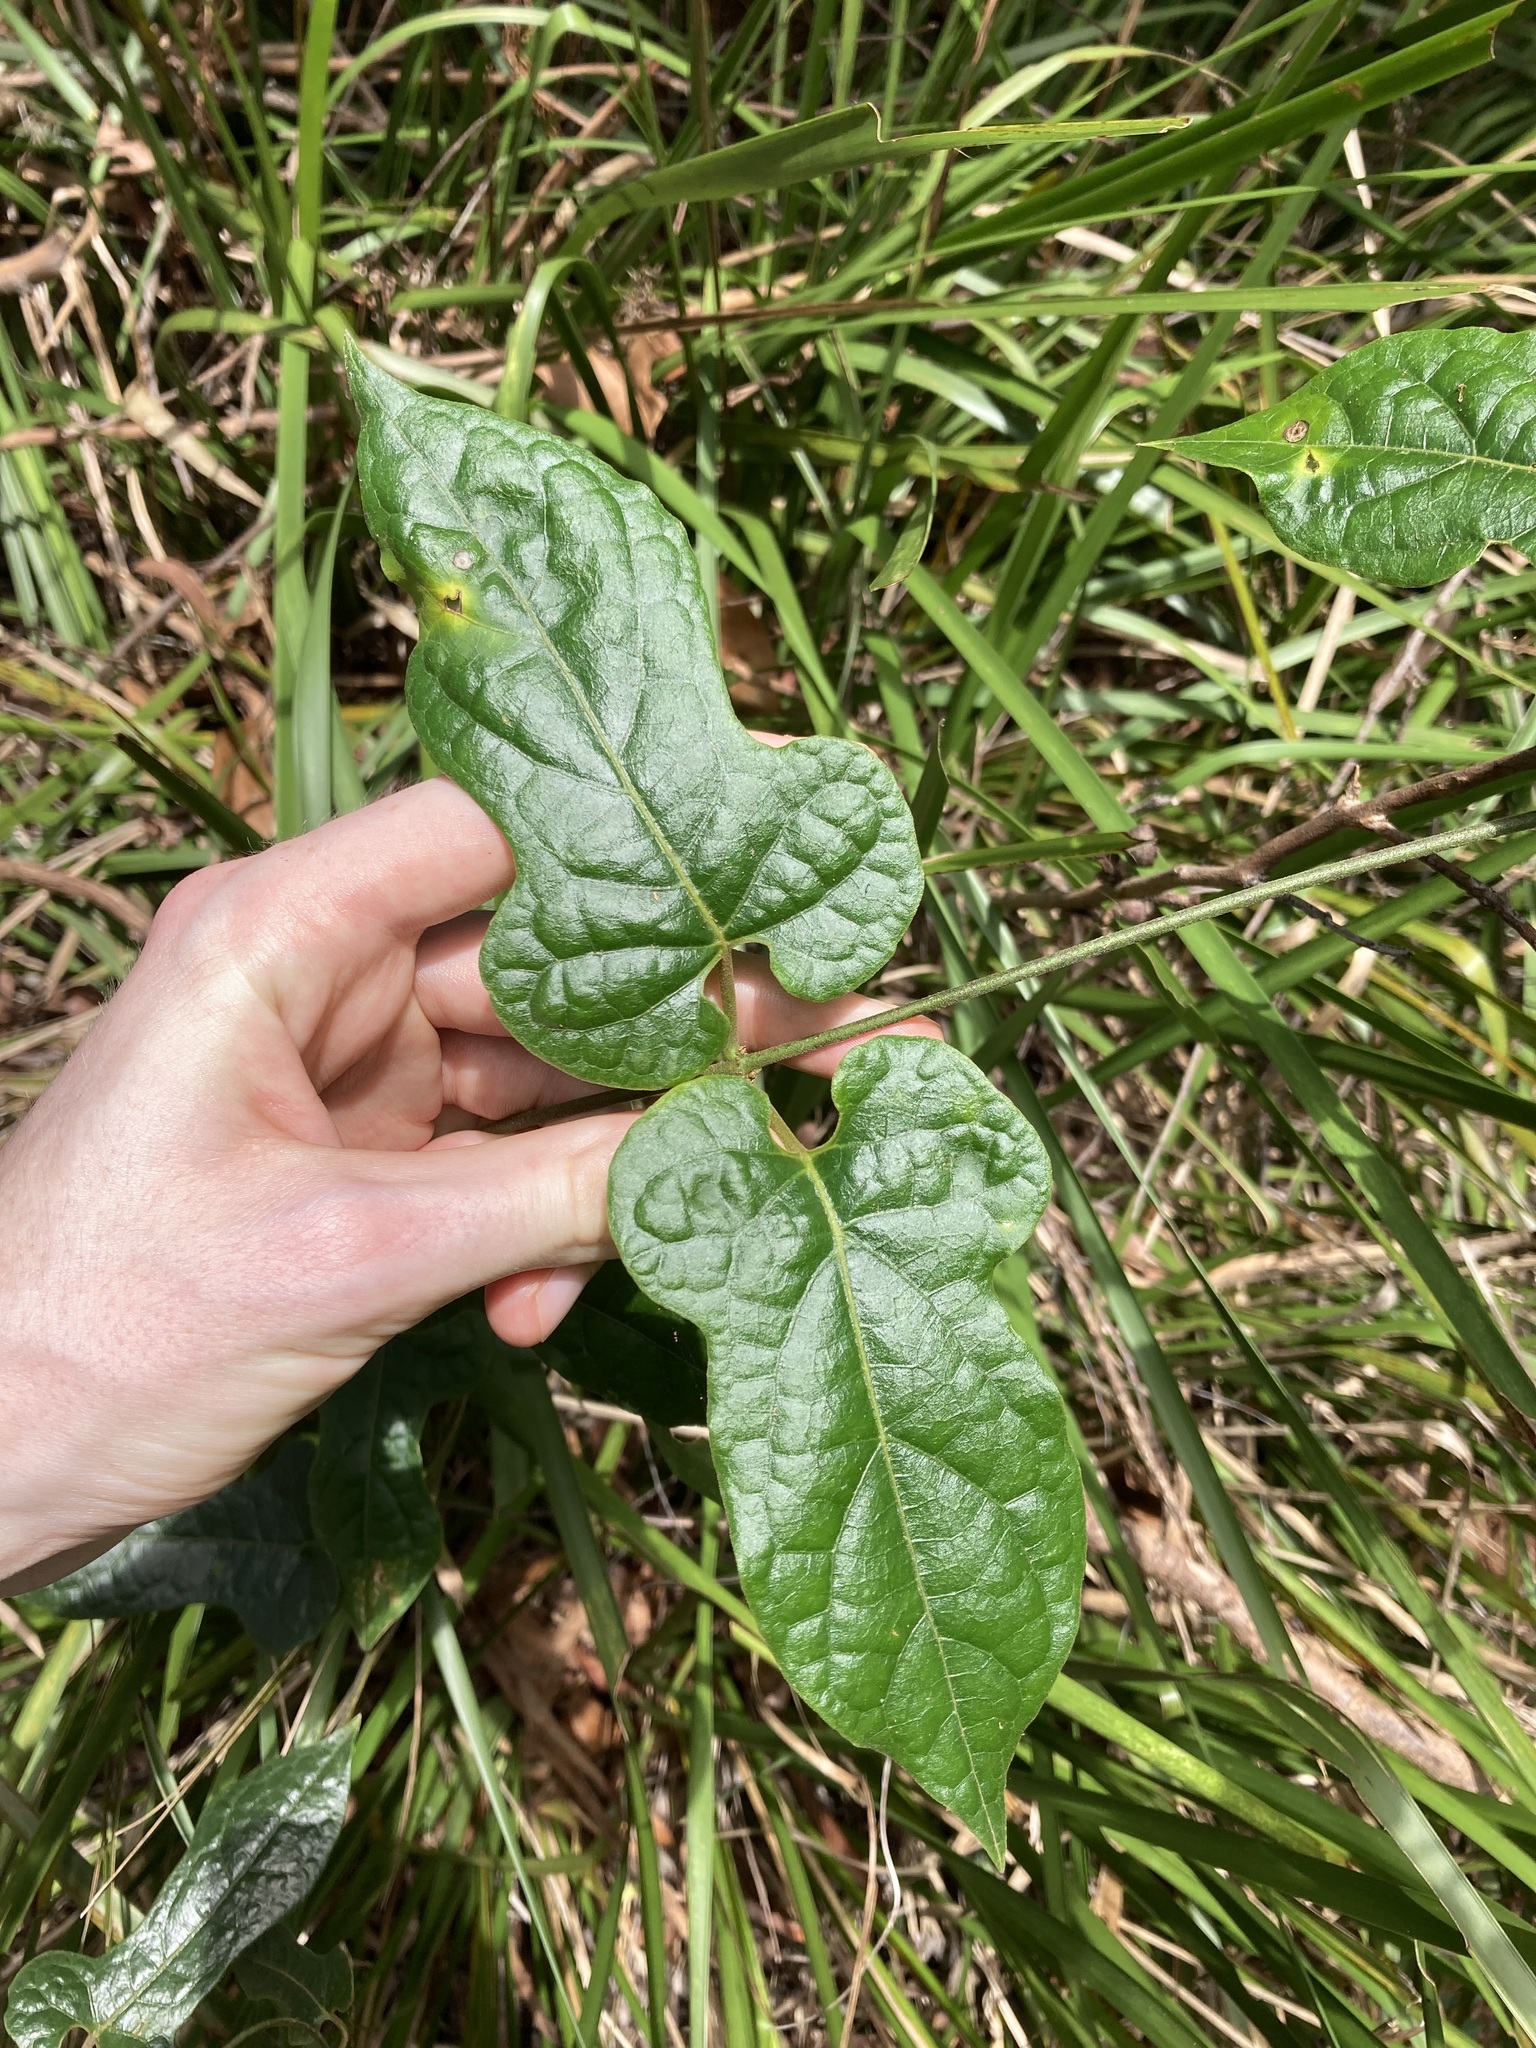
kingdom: Plantae
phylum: Tracheophyta
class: Magnoliopsida
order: Gentianales
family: Apocynaceae
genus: Parsonsia
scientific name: Parsonsia velutina
